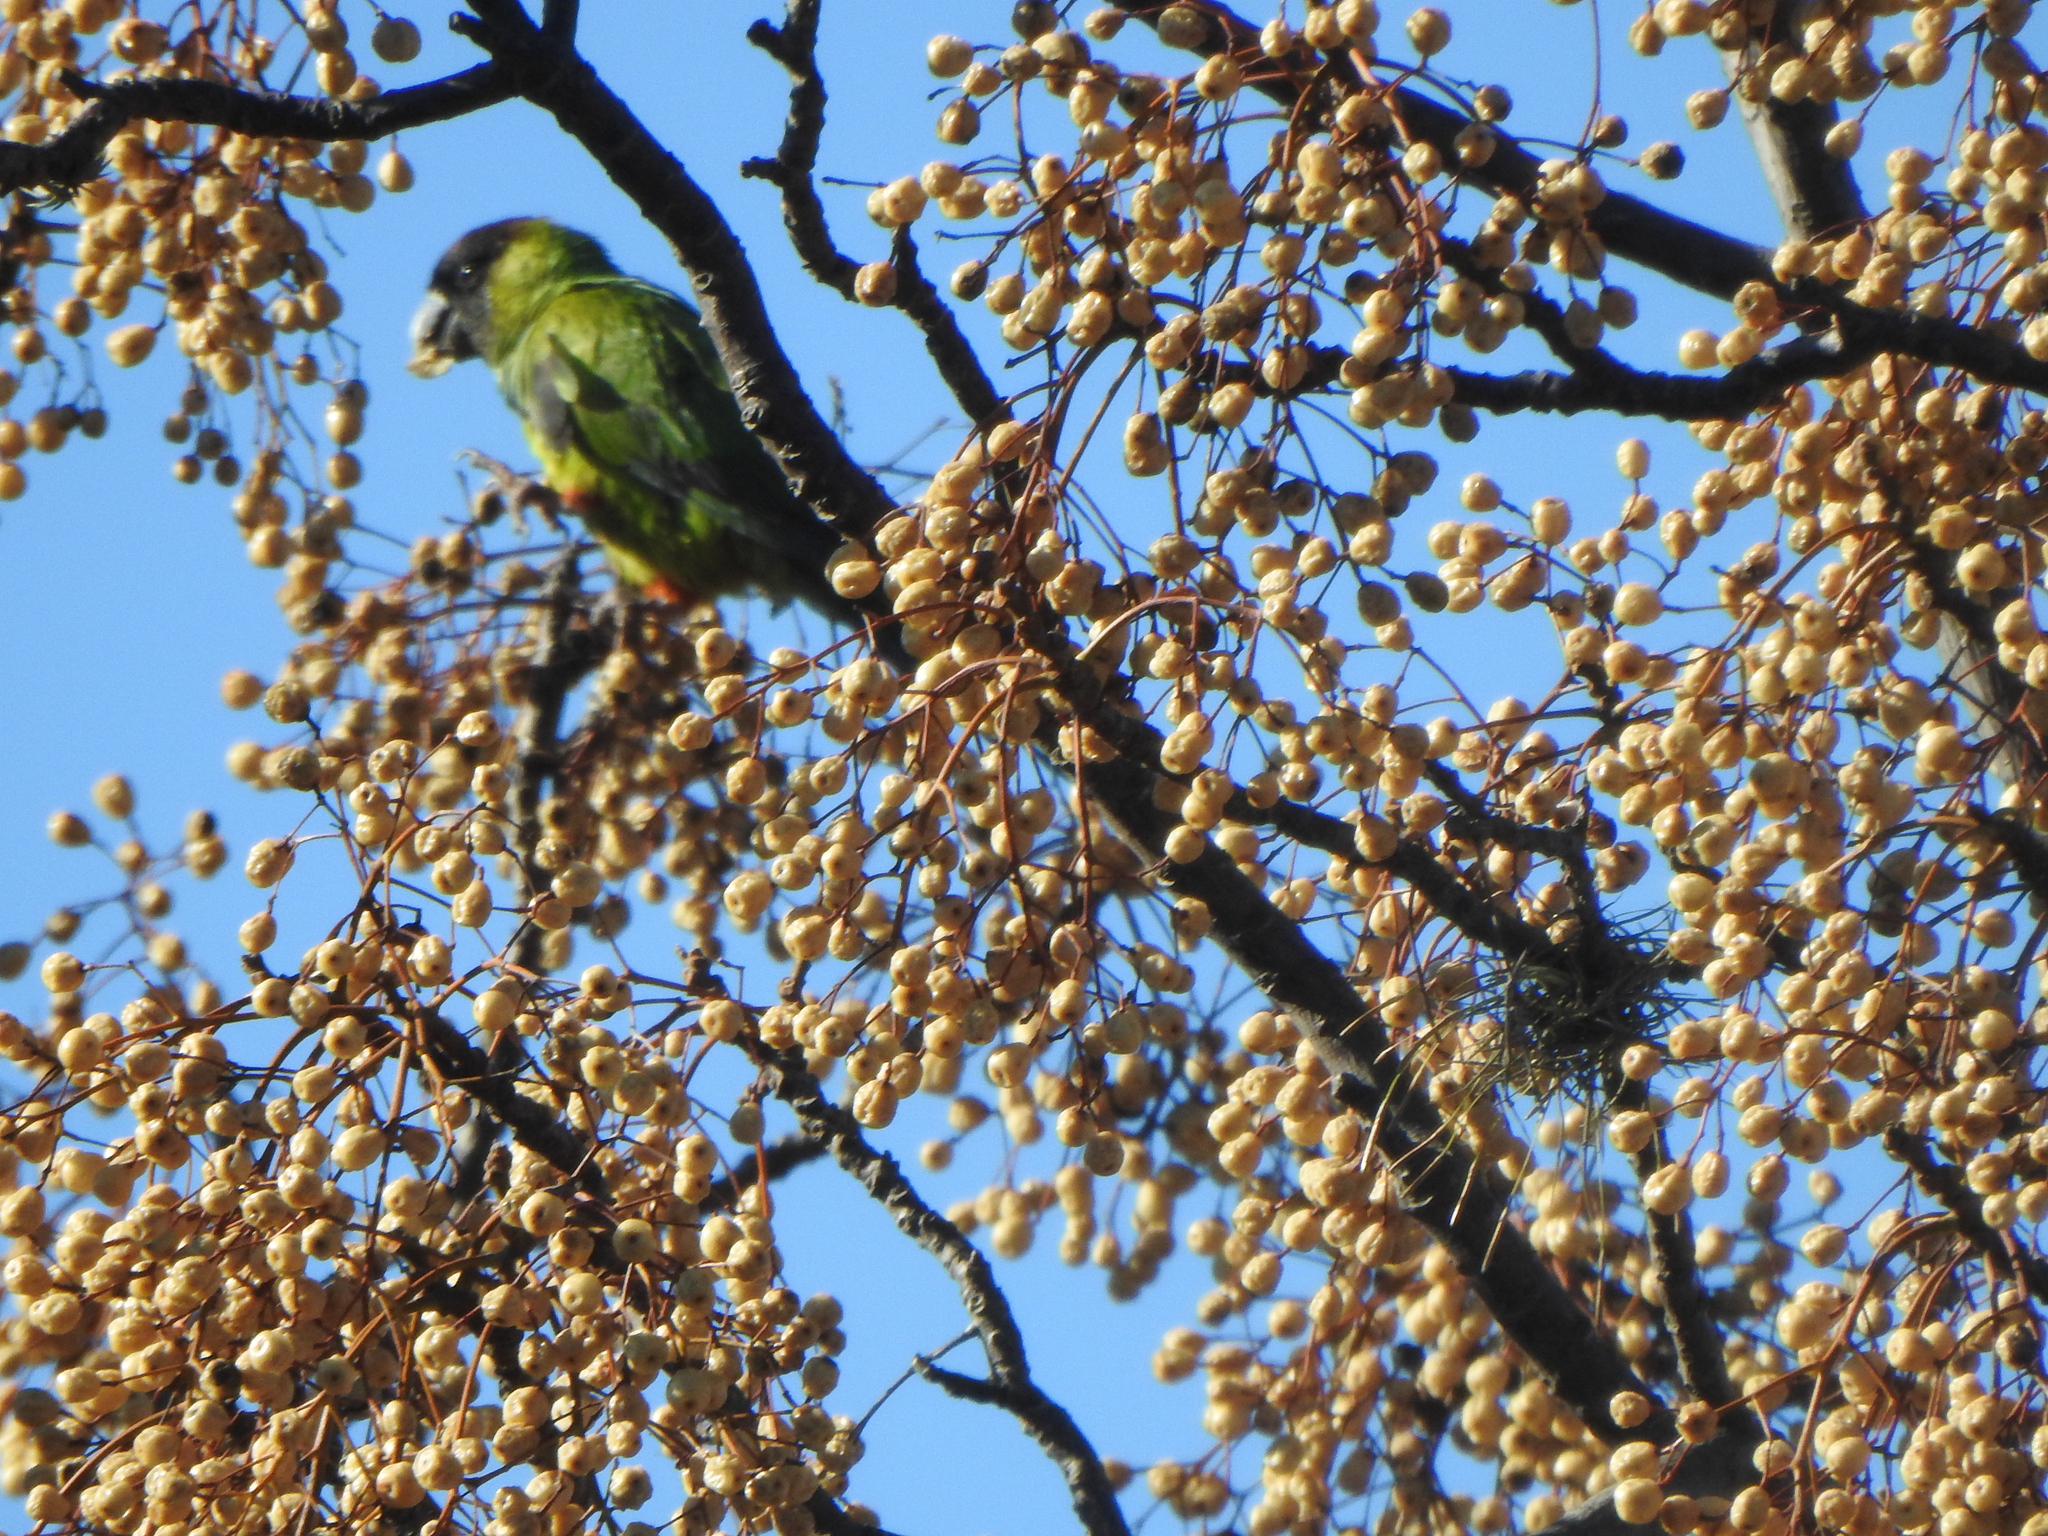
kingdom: Animalia
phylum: Chordata
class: Aves
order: Psittaciformes
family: Psittacidae
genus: Nandayus
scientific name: Nandayus nenday
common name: Nanday parakeet
